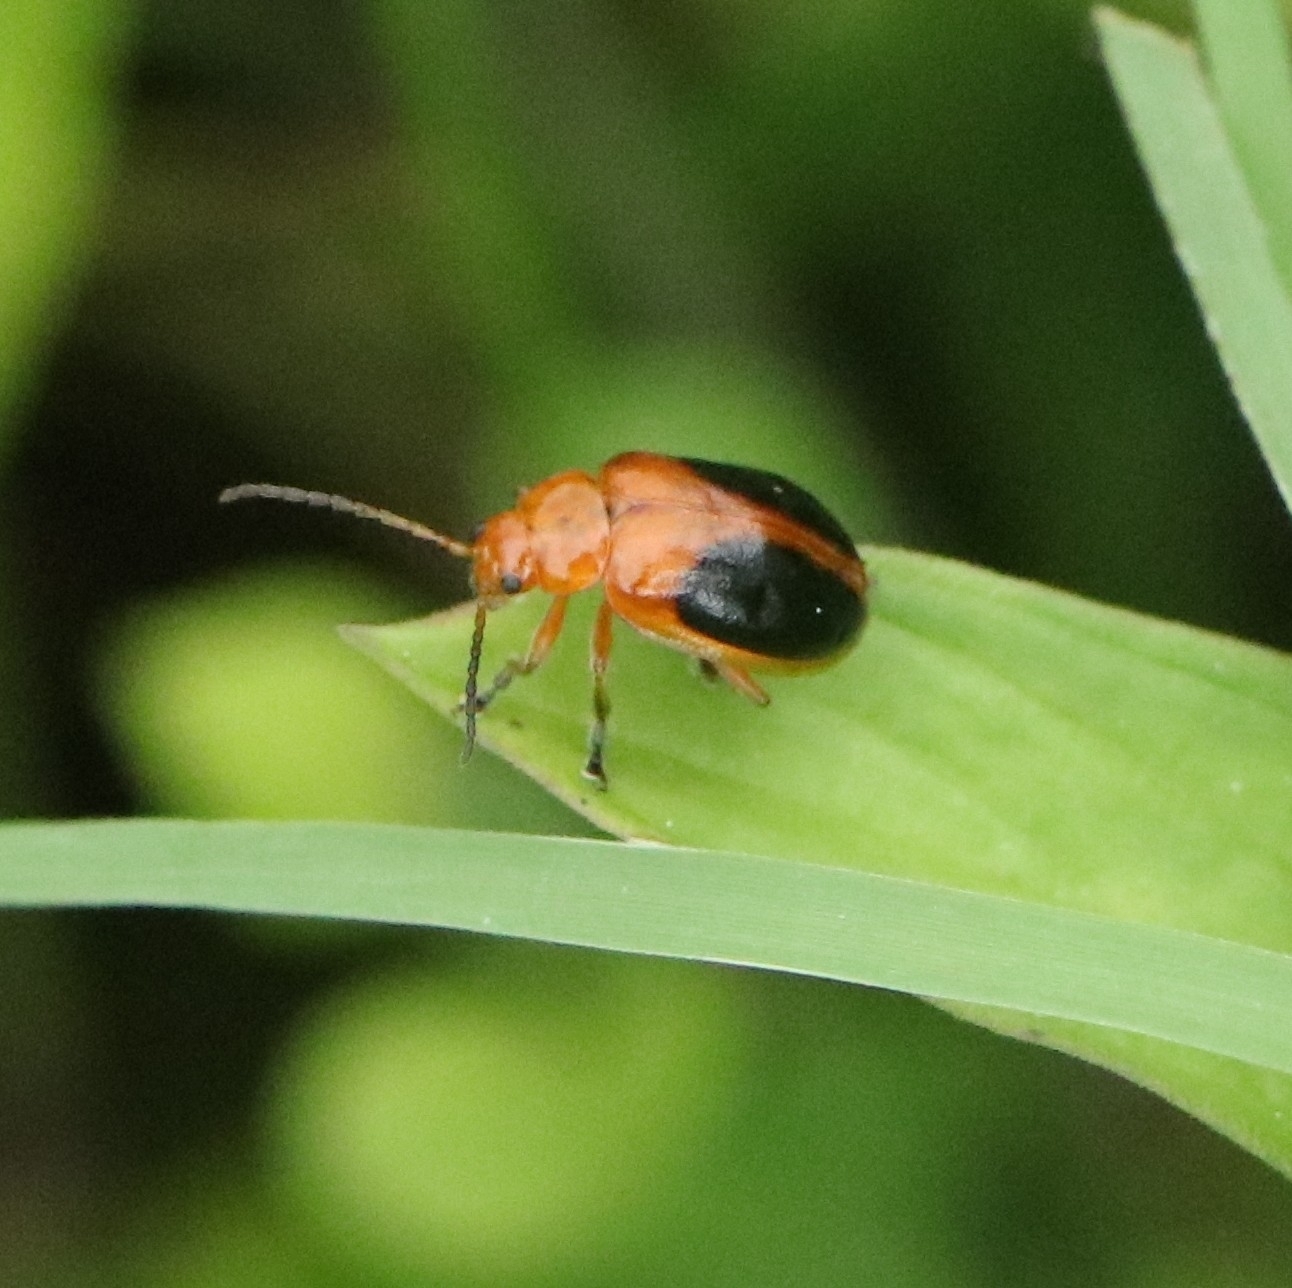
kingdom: Animalia
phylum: Arthropoda
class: Insecta
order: Coleoptera
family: Chrysomelidae
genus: Oides
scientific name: Oides affinis
